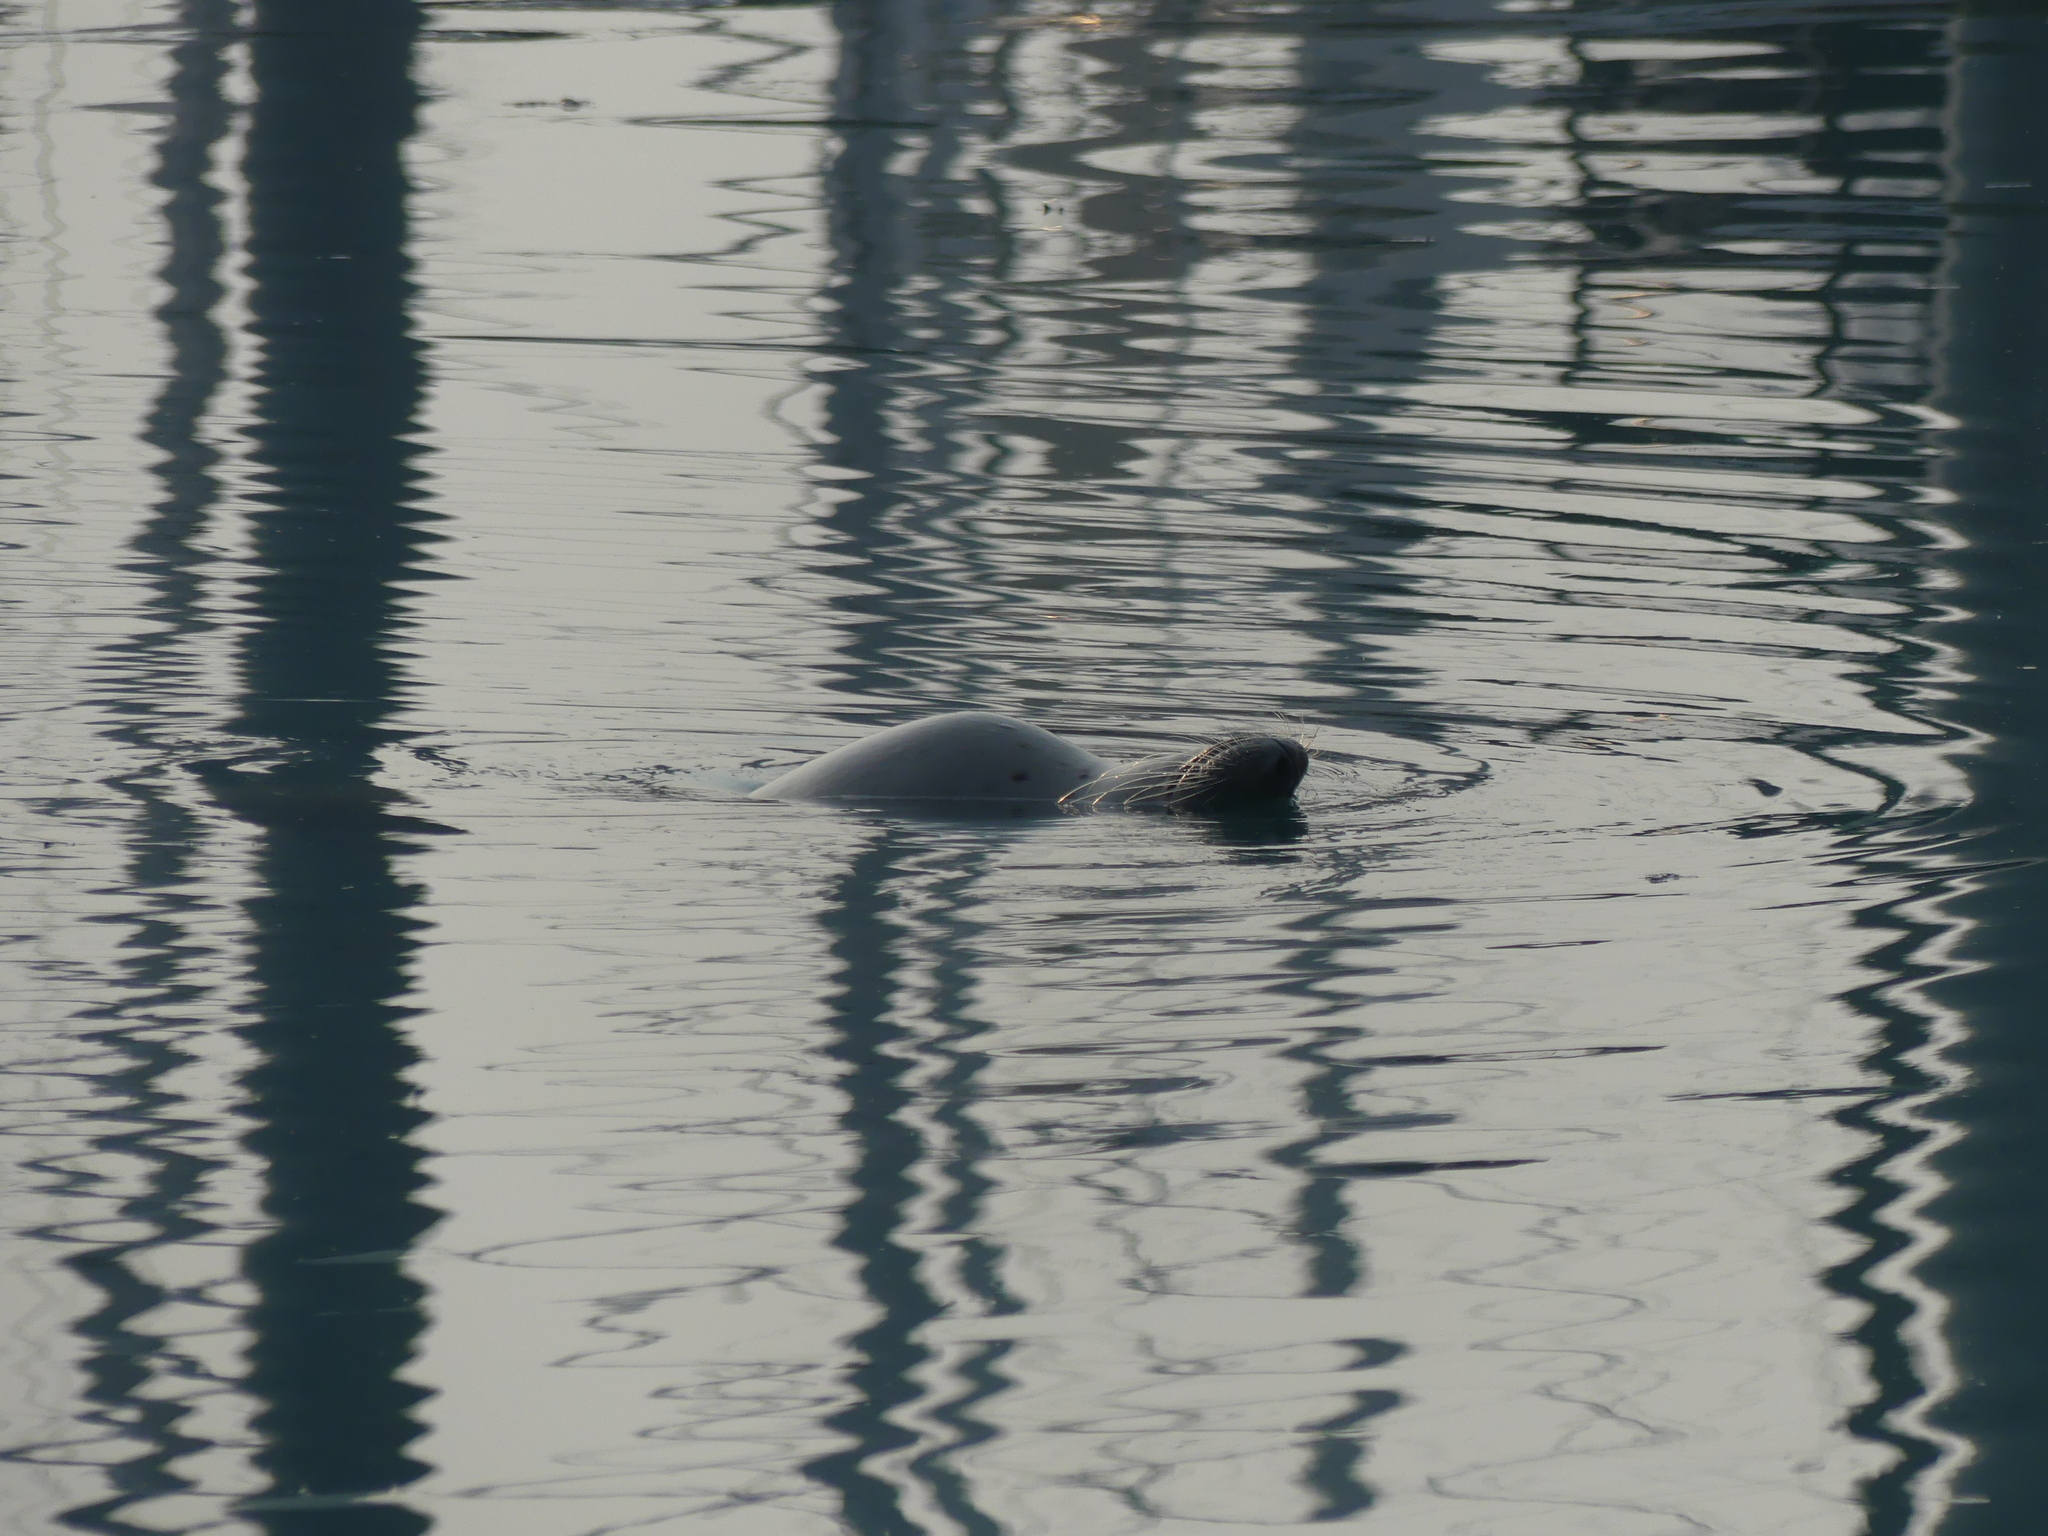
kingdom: Animalia
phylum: Chordata
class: Mammalia
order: Carnivora
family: Phocidae
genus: Phoca
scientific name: Phoca vitulina
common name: Harbor seal
